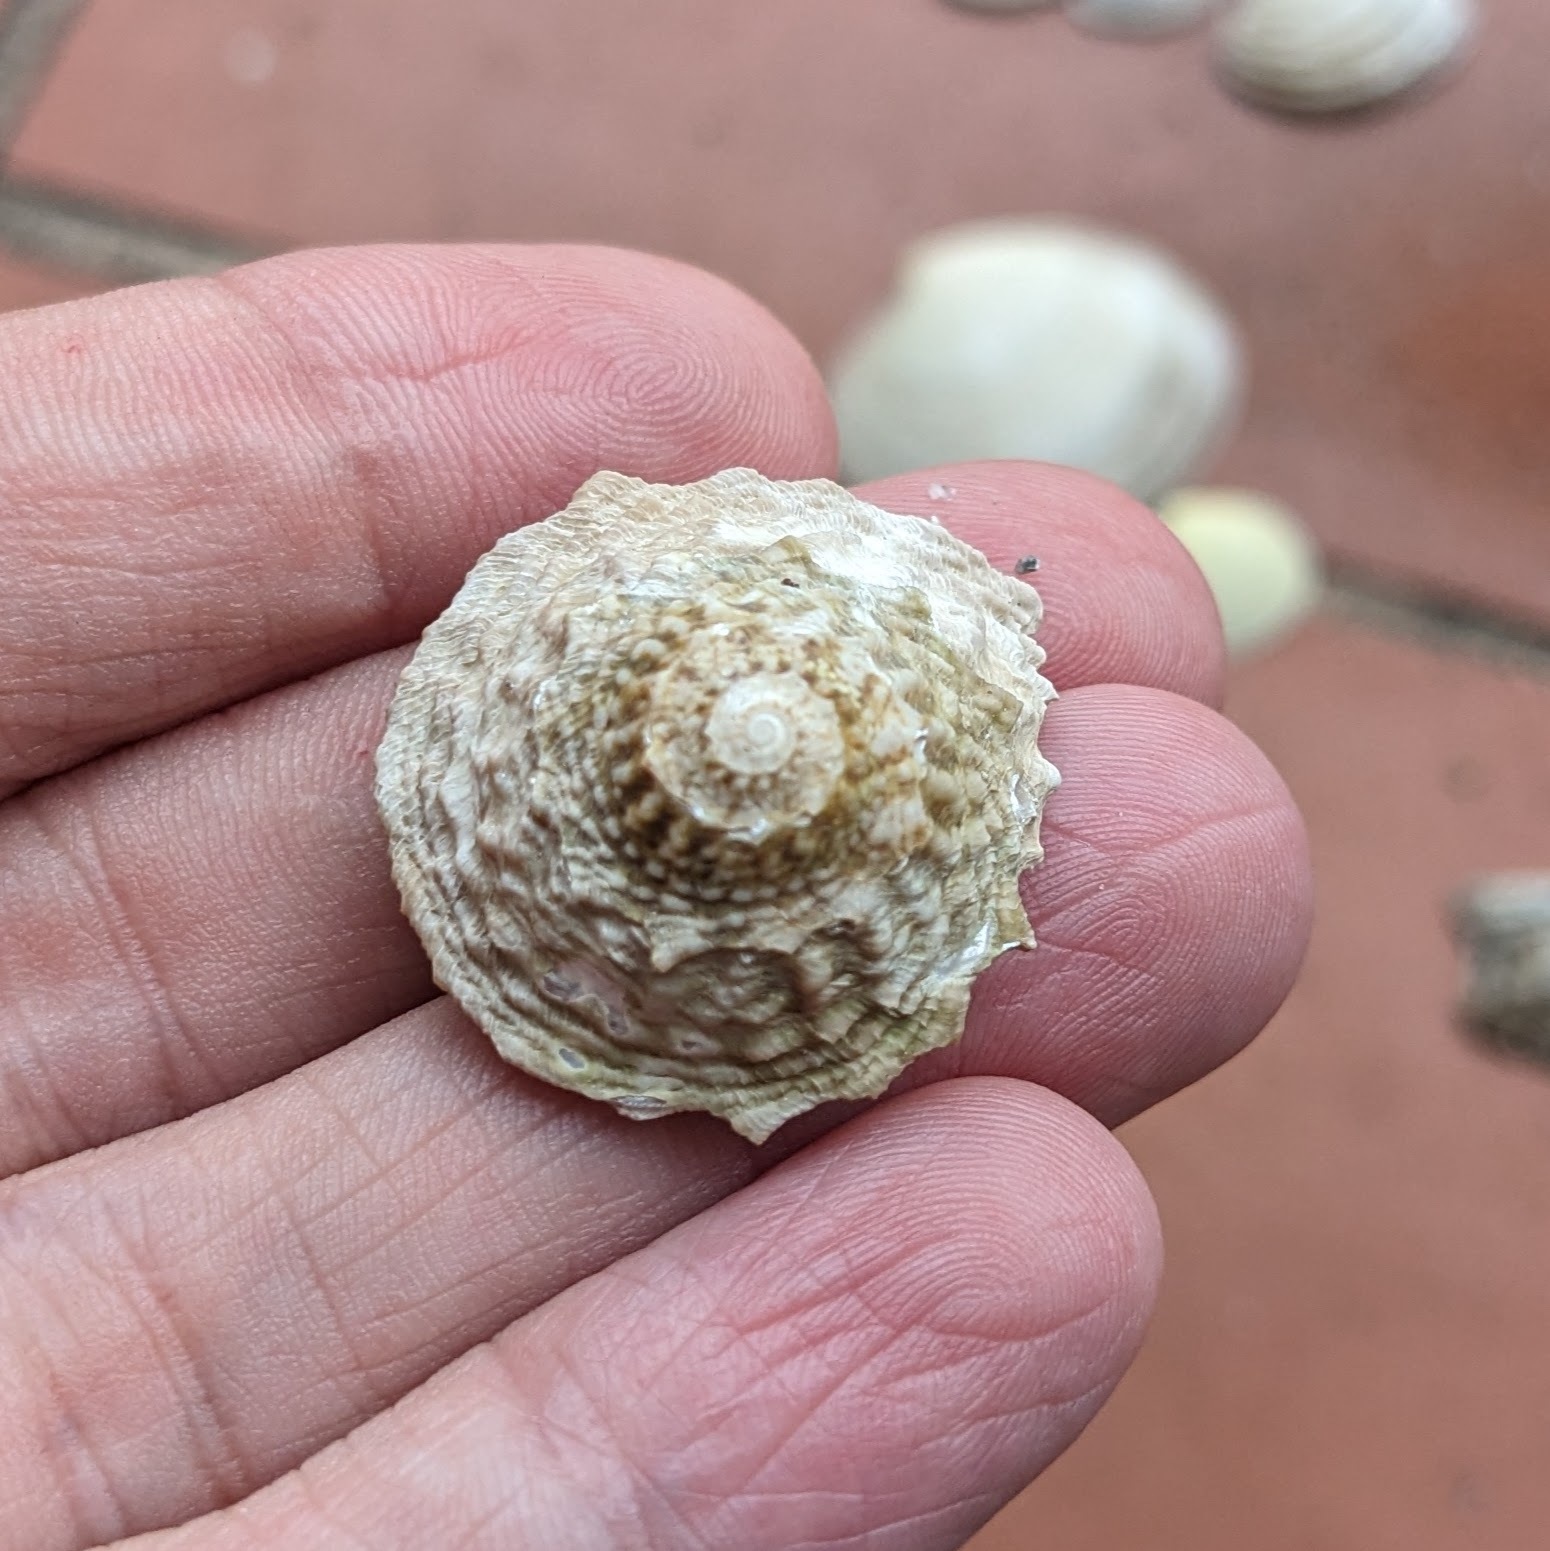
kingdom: Animalia
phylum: Mollusca
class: Gastropoda
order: Trochida
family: Turbinidae
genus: Lithopoma
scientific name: Lithopoma phoebium
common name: Long-spined starsnail
